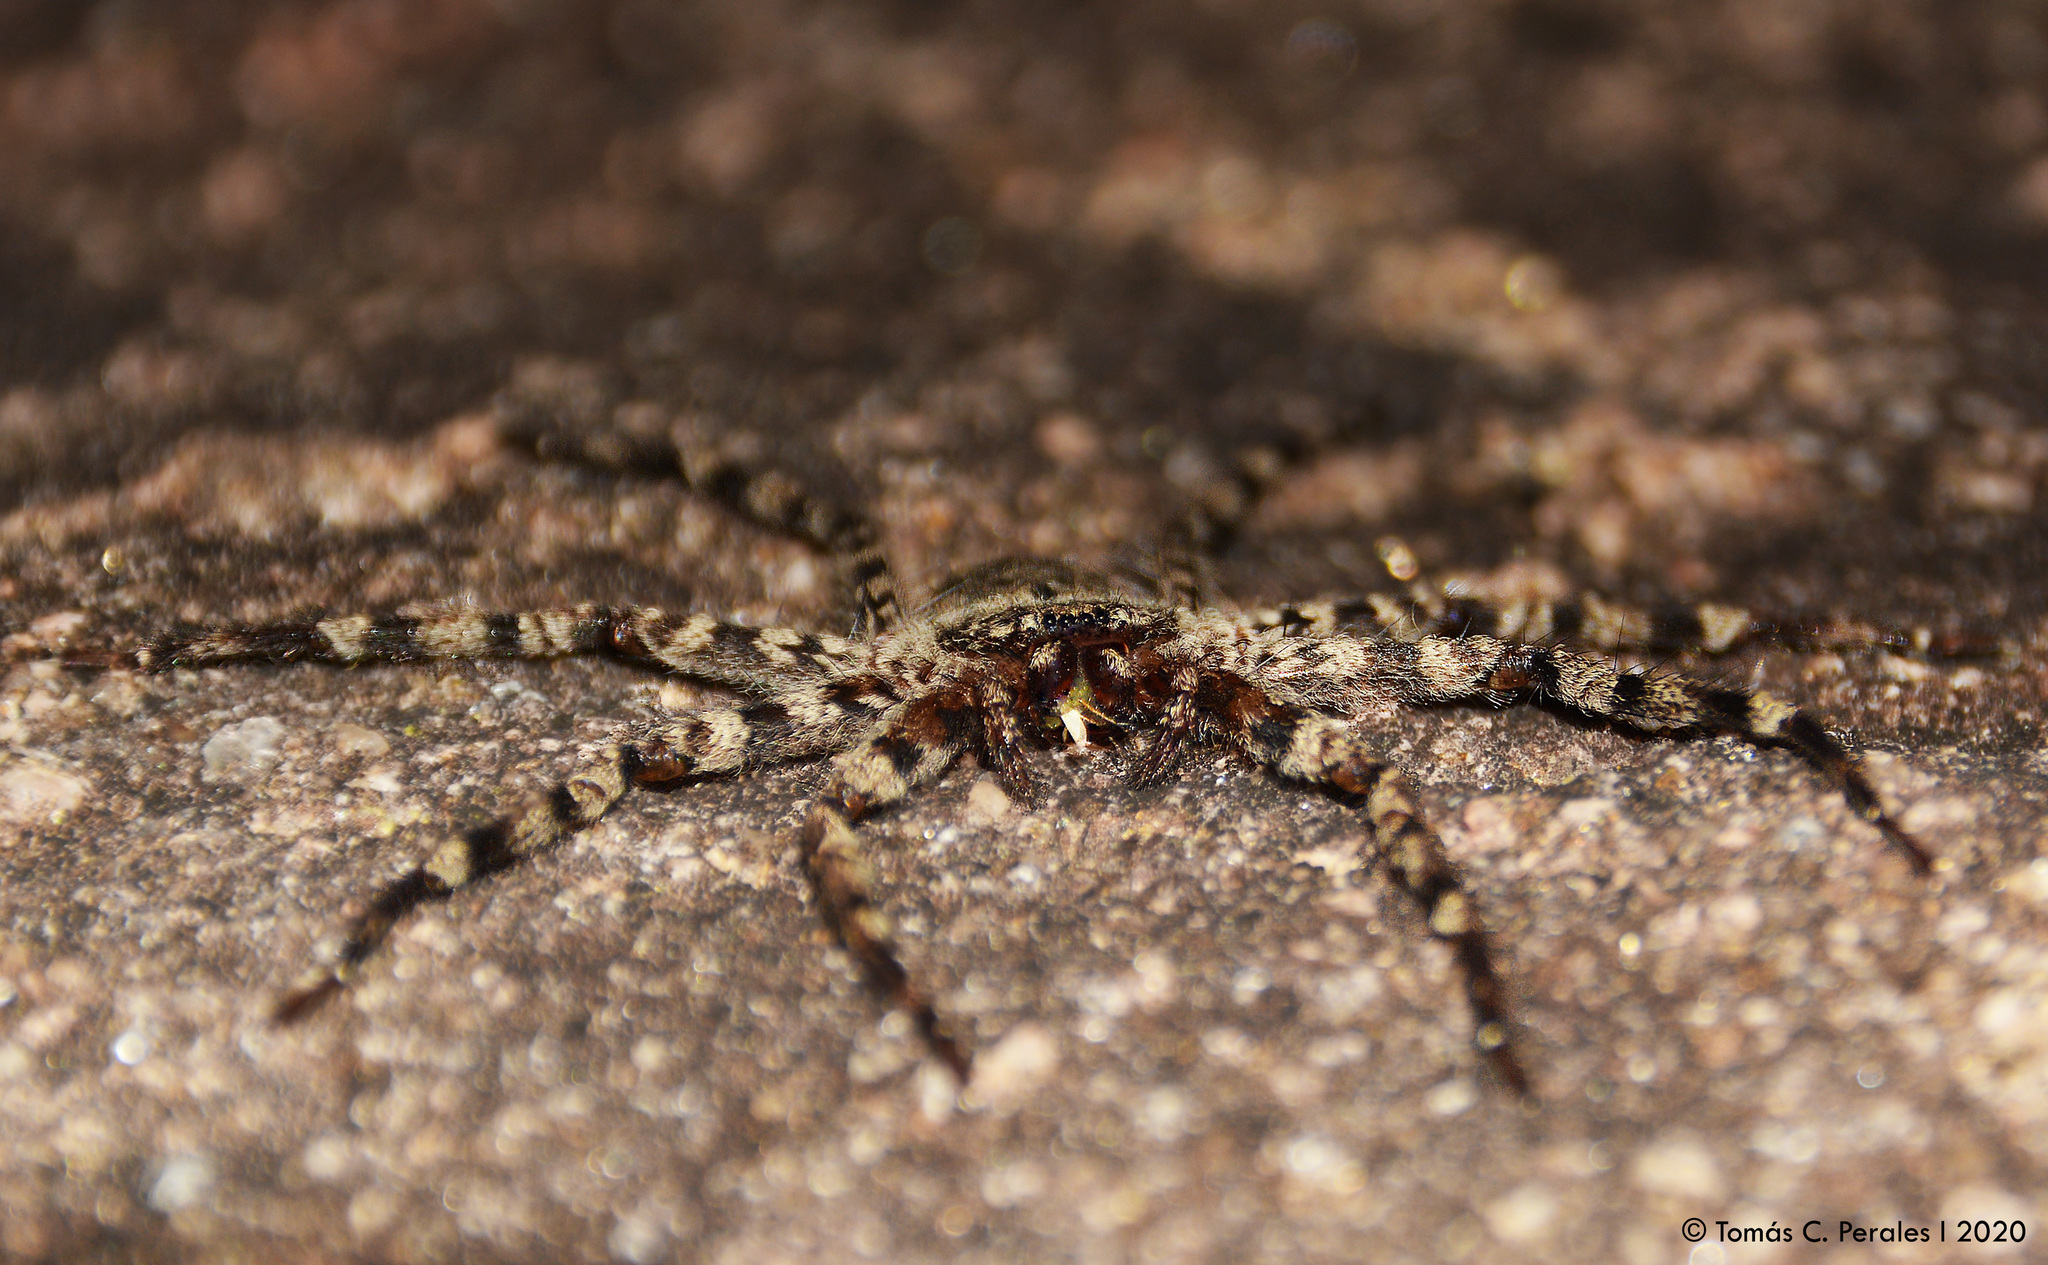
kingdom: Animalia
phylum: Arthropoda
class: Arachnida
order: Araneae
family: Selenopidae
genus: Selenops
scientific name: Selenops
